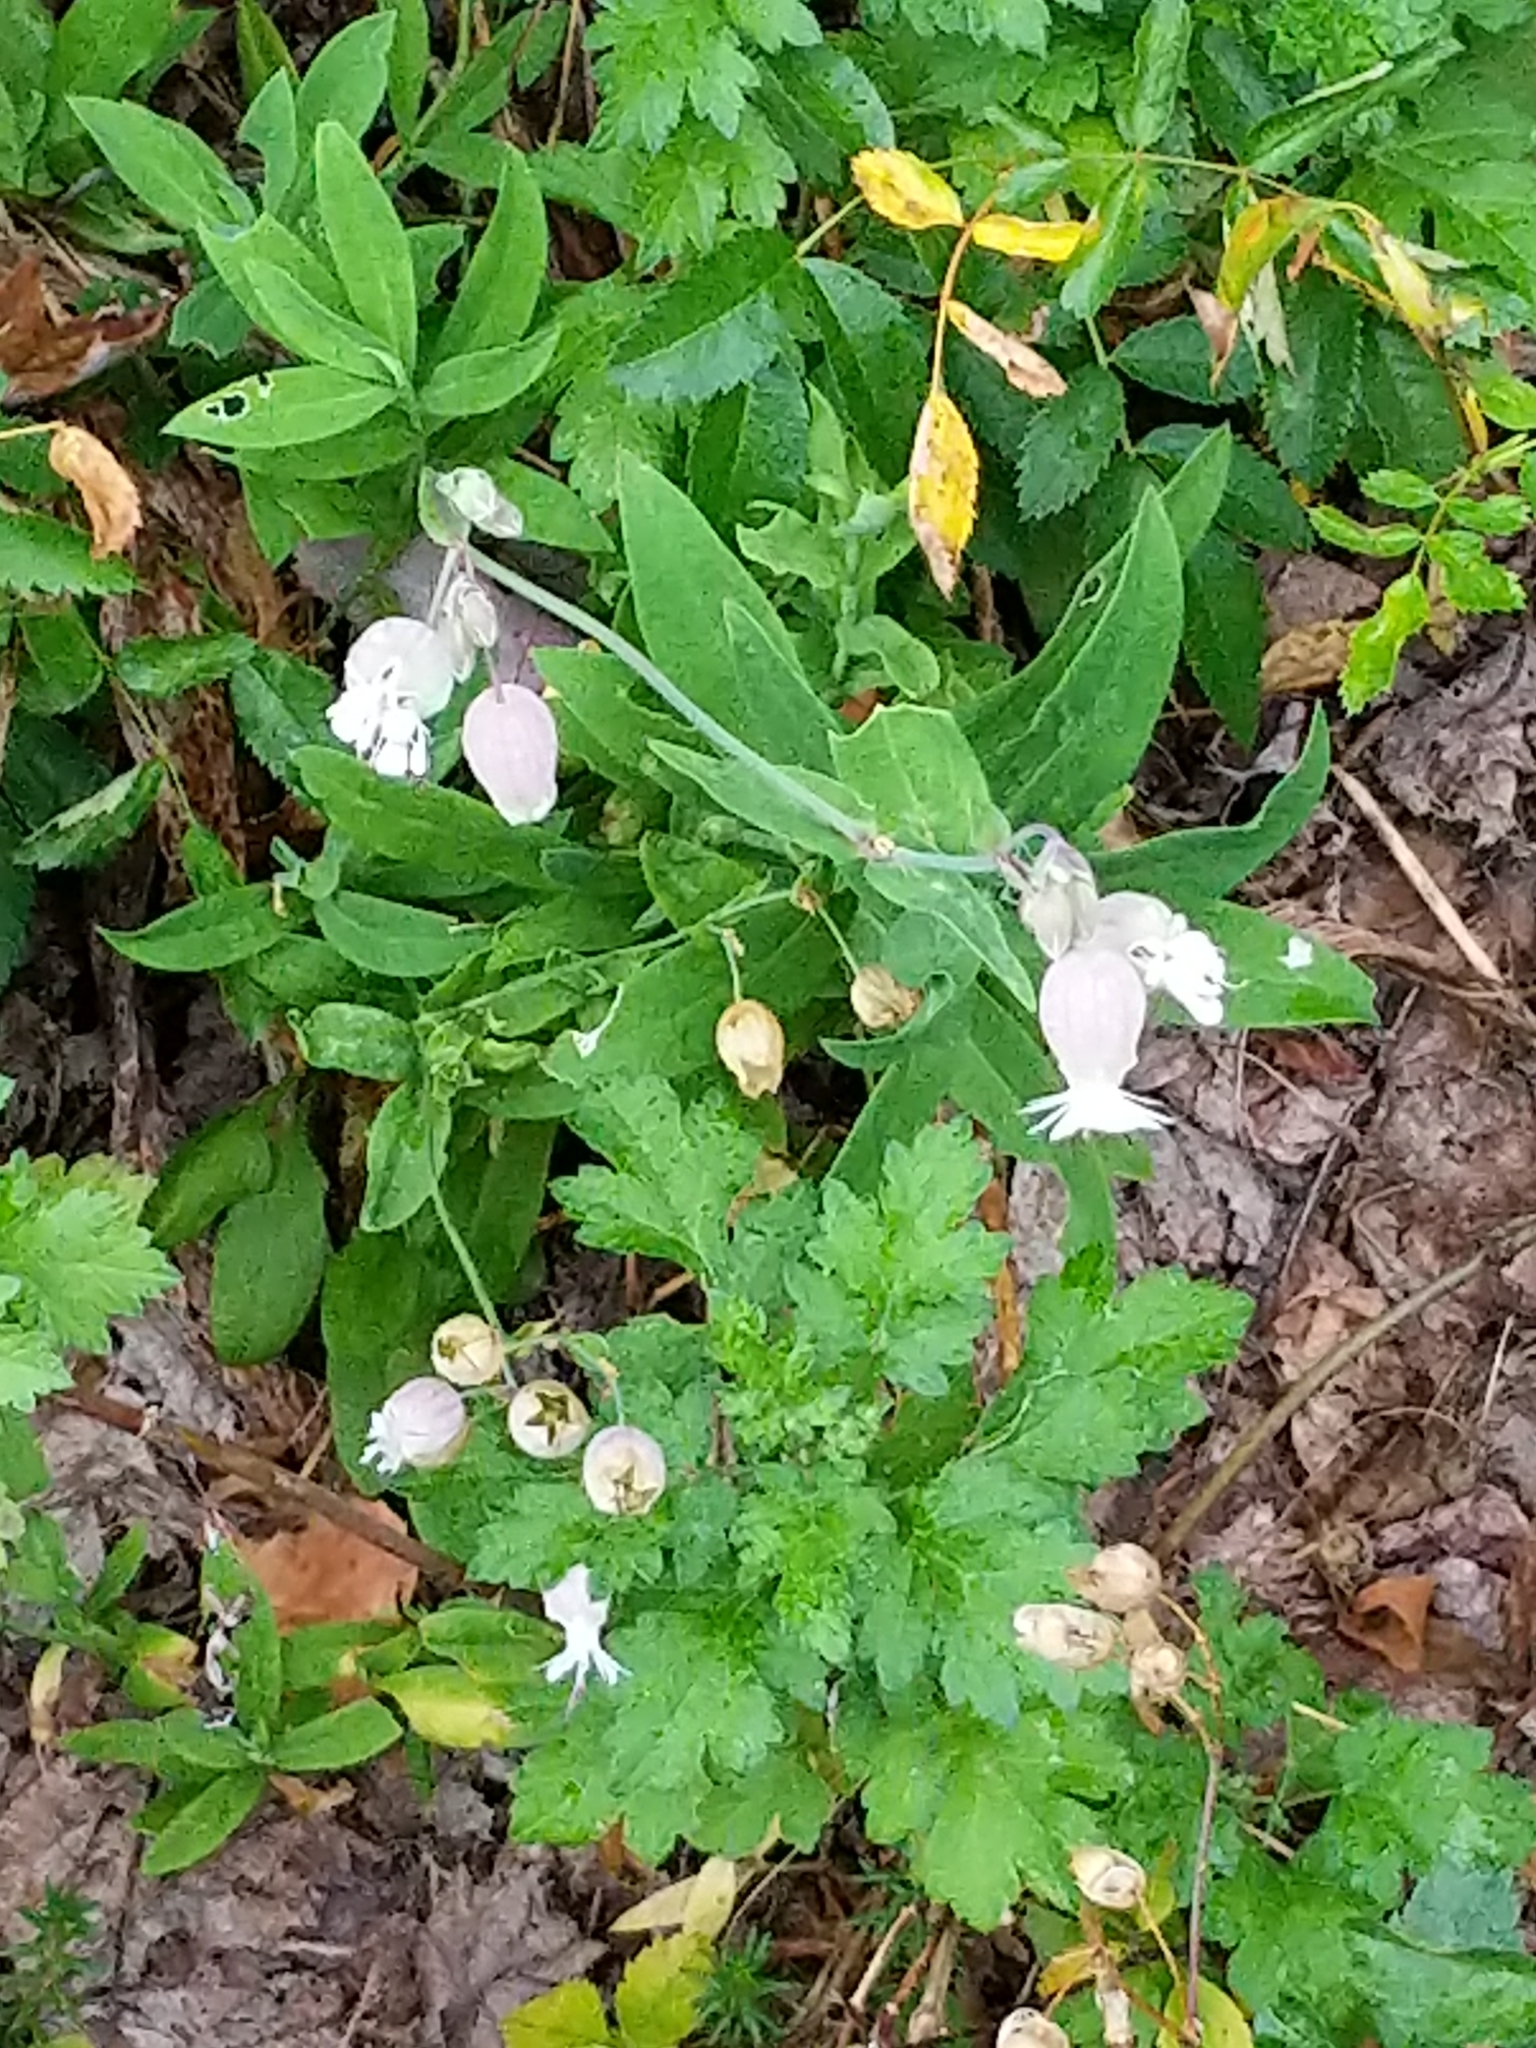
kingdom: Plantae
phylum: Tracheophyta
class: Magnoliopsida
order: Caryophyllales
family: Caryophyllaceae
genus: Silene
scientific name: Silene vulgaris
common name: Bladder campion
